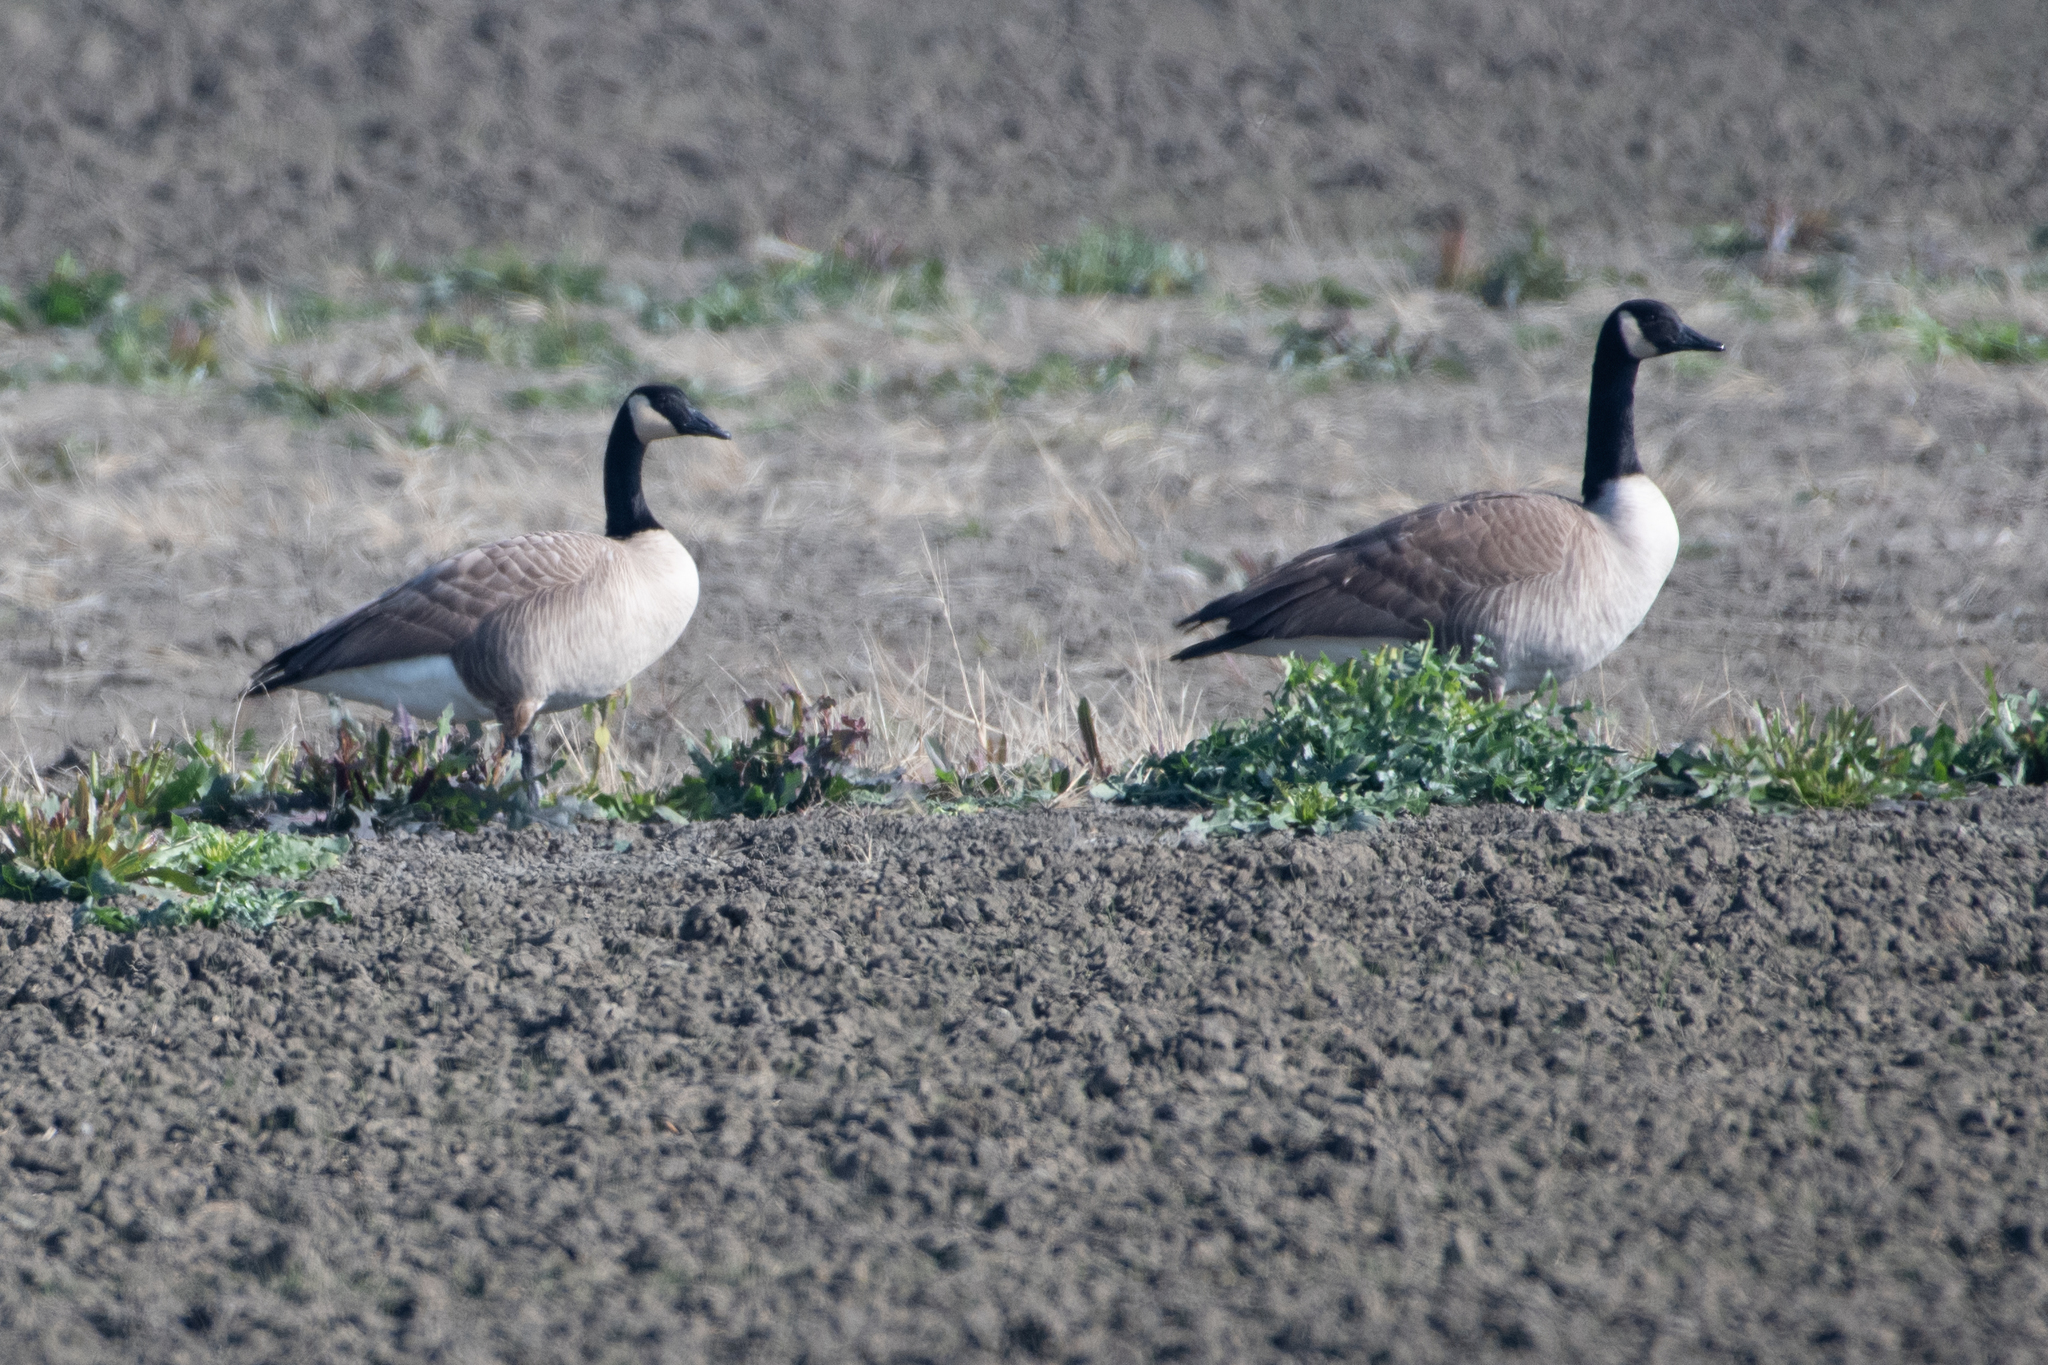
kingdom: Animalia
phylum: Chordata
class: Aves
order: Anseriformes
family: Anatidae
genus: Branta
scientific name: Branta canadensis
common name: Canada goose
